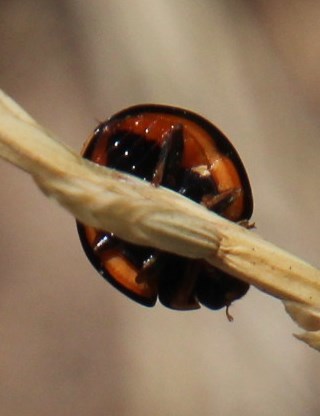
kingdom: Animalia
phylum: Arthropoda
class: Insecta
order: Coleoptera
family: Coccinellidae
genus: Cheilomenes
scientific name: Cheilomenes lunata
